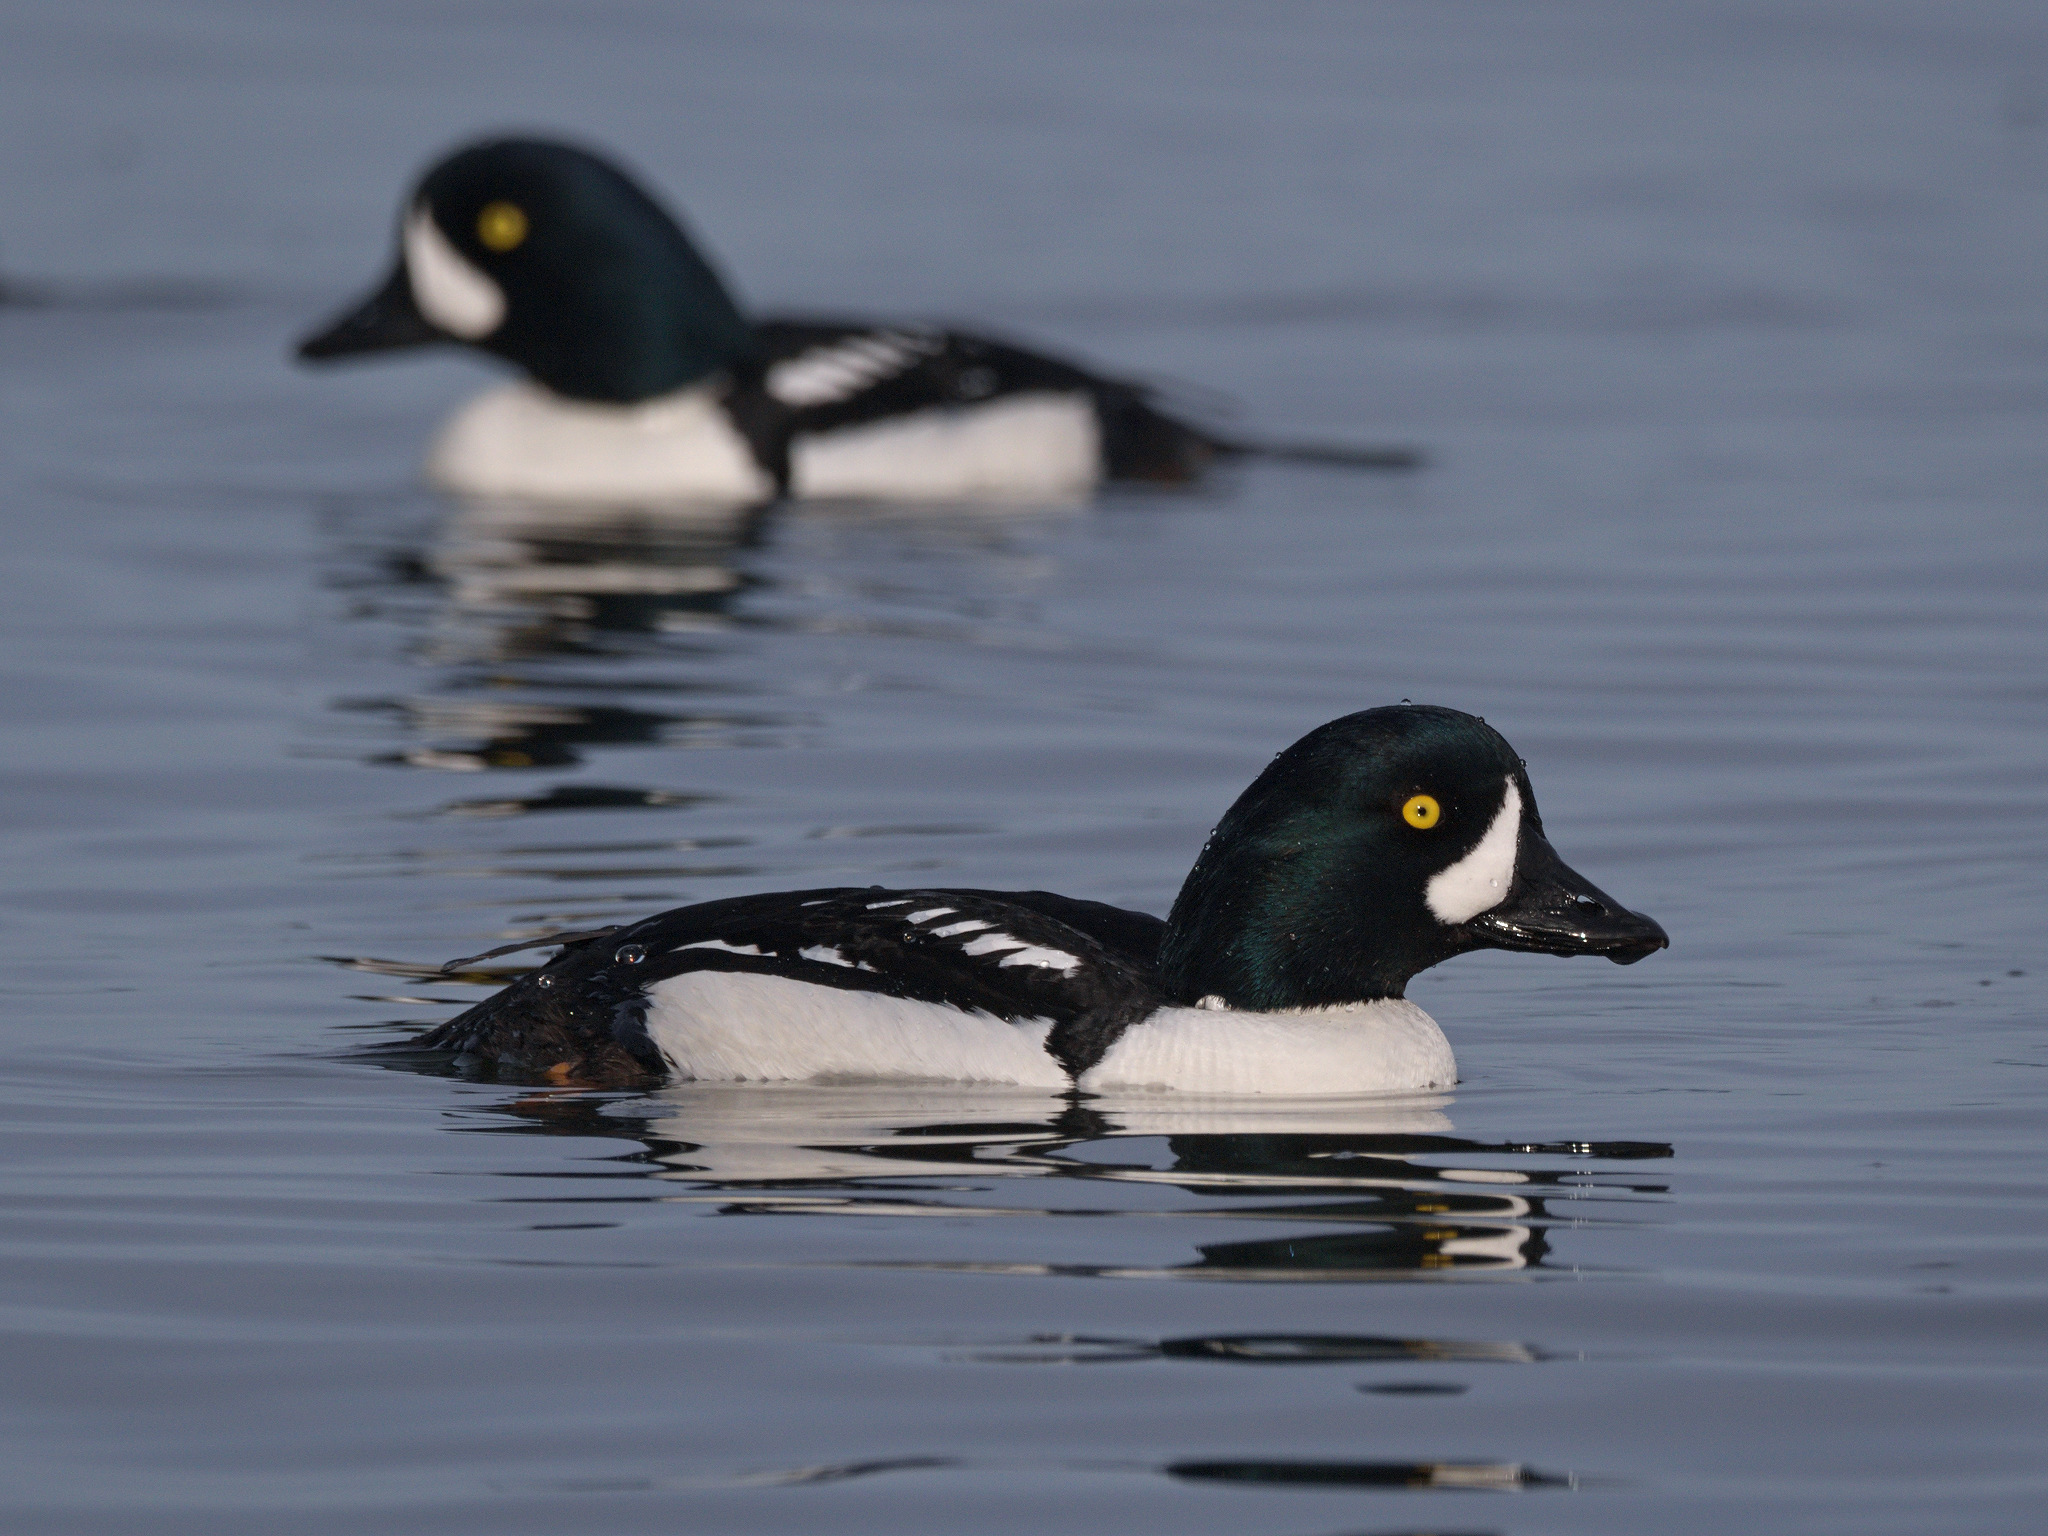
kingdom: Animalia
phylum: Chordata
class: Aves
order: Anseriformes
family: Anatidae
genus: Bucephala
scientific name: Bucephala islandica
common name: Barrow's goldeneye
